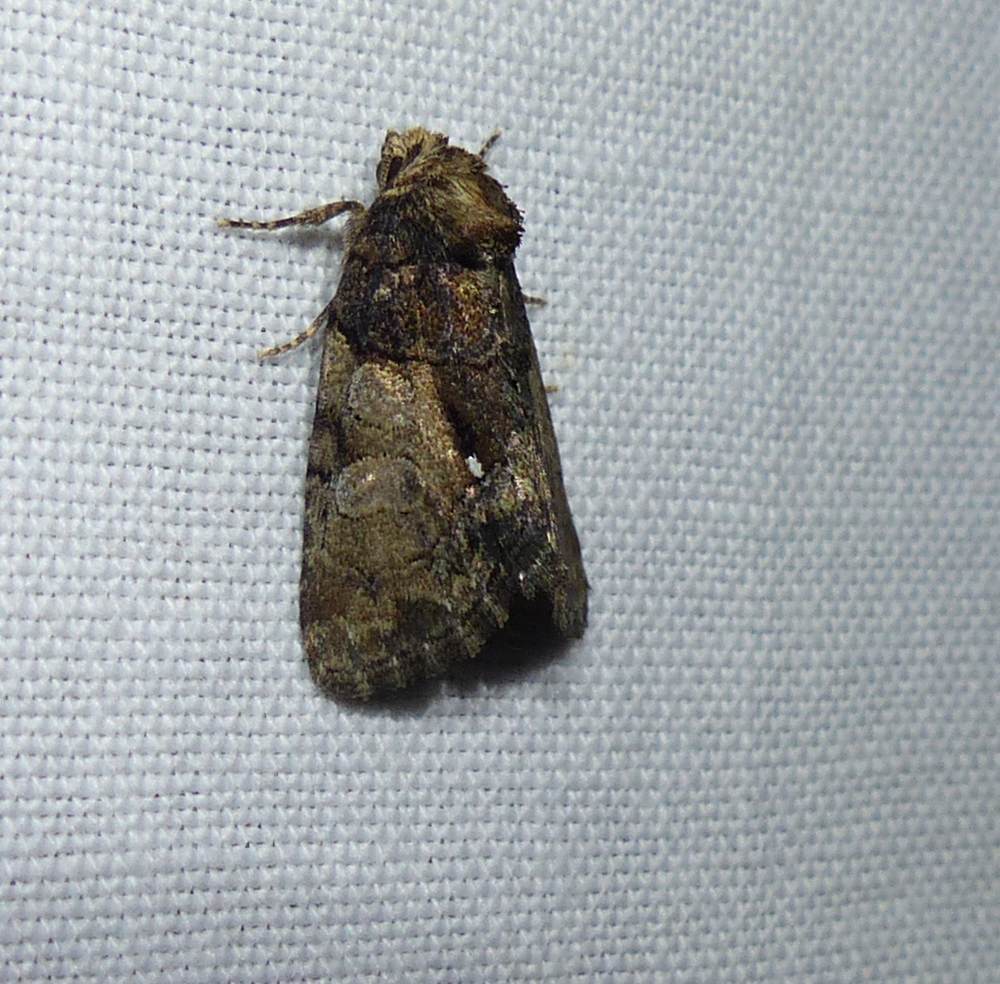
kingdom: Animalia
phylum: Arthropoda
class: Insecta
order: Lepidoptera
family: Noctuidae
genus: Chytonix
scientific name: Chytonix palliatricula
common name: Cloaked marvel
